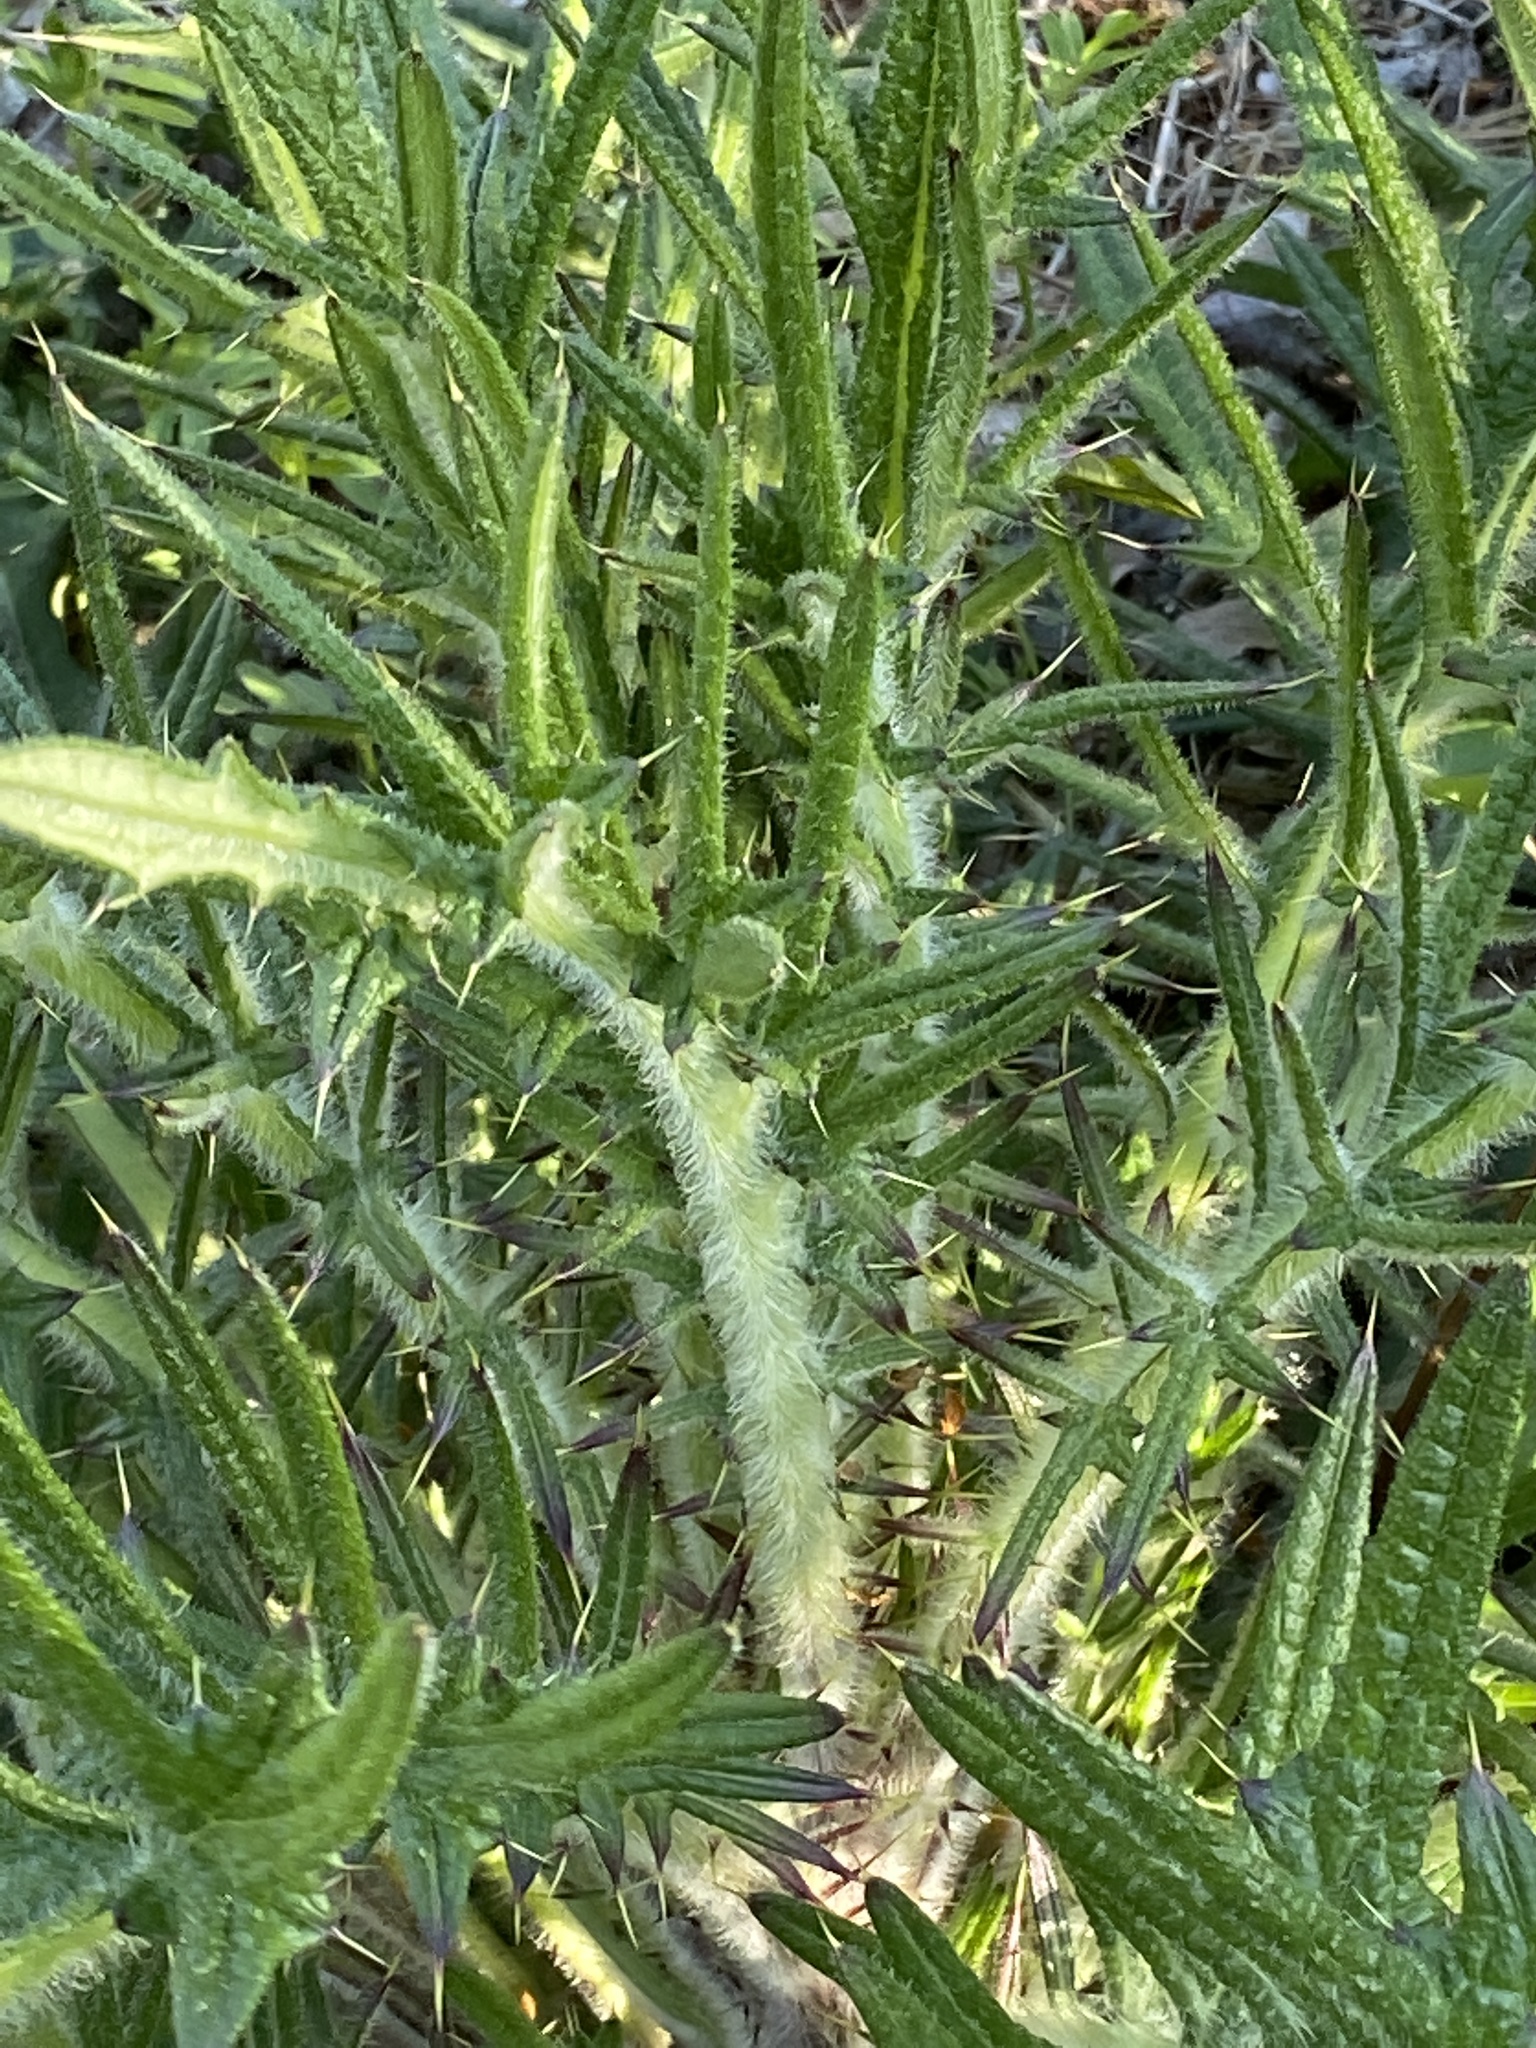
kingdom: Plantae
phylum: Tracheophyta
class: Magnoliopsida
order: Asterales
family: Asteraceae
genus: Cirsium
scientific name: Cirsium vulgare
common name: Bull thistle
